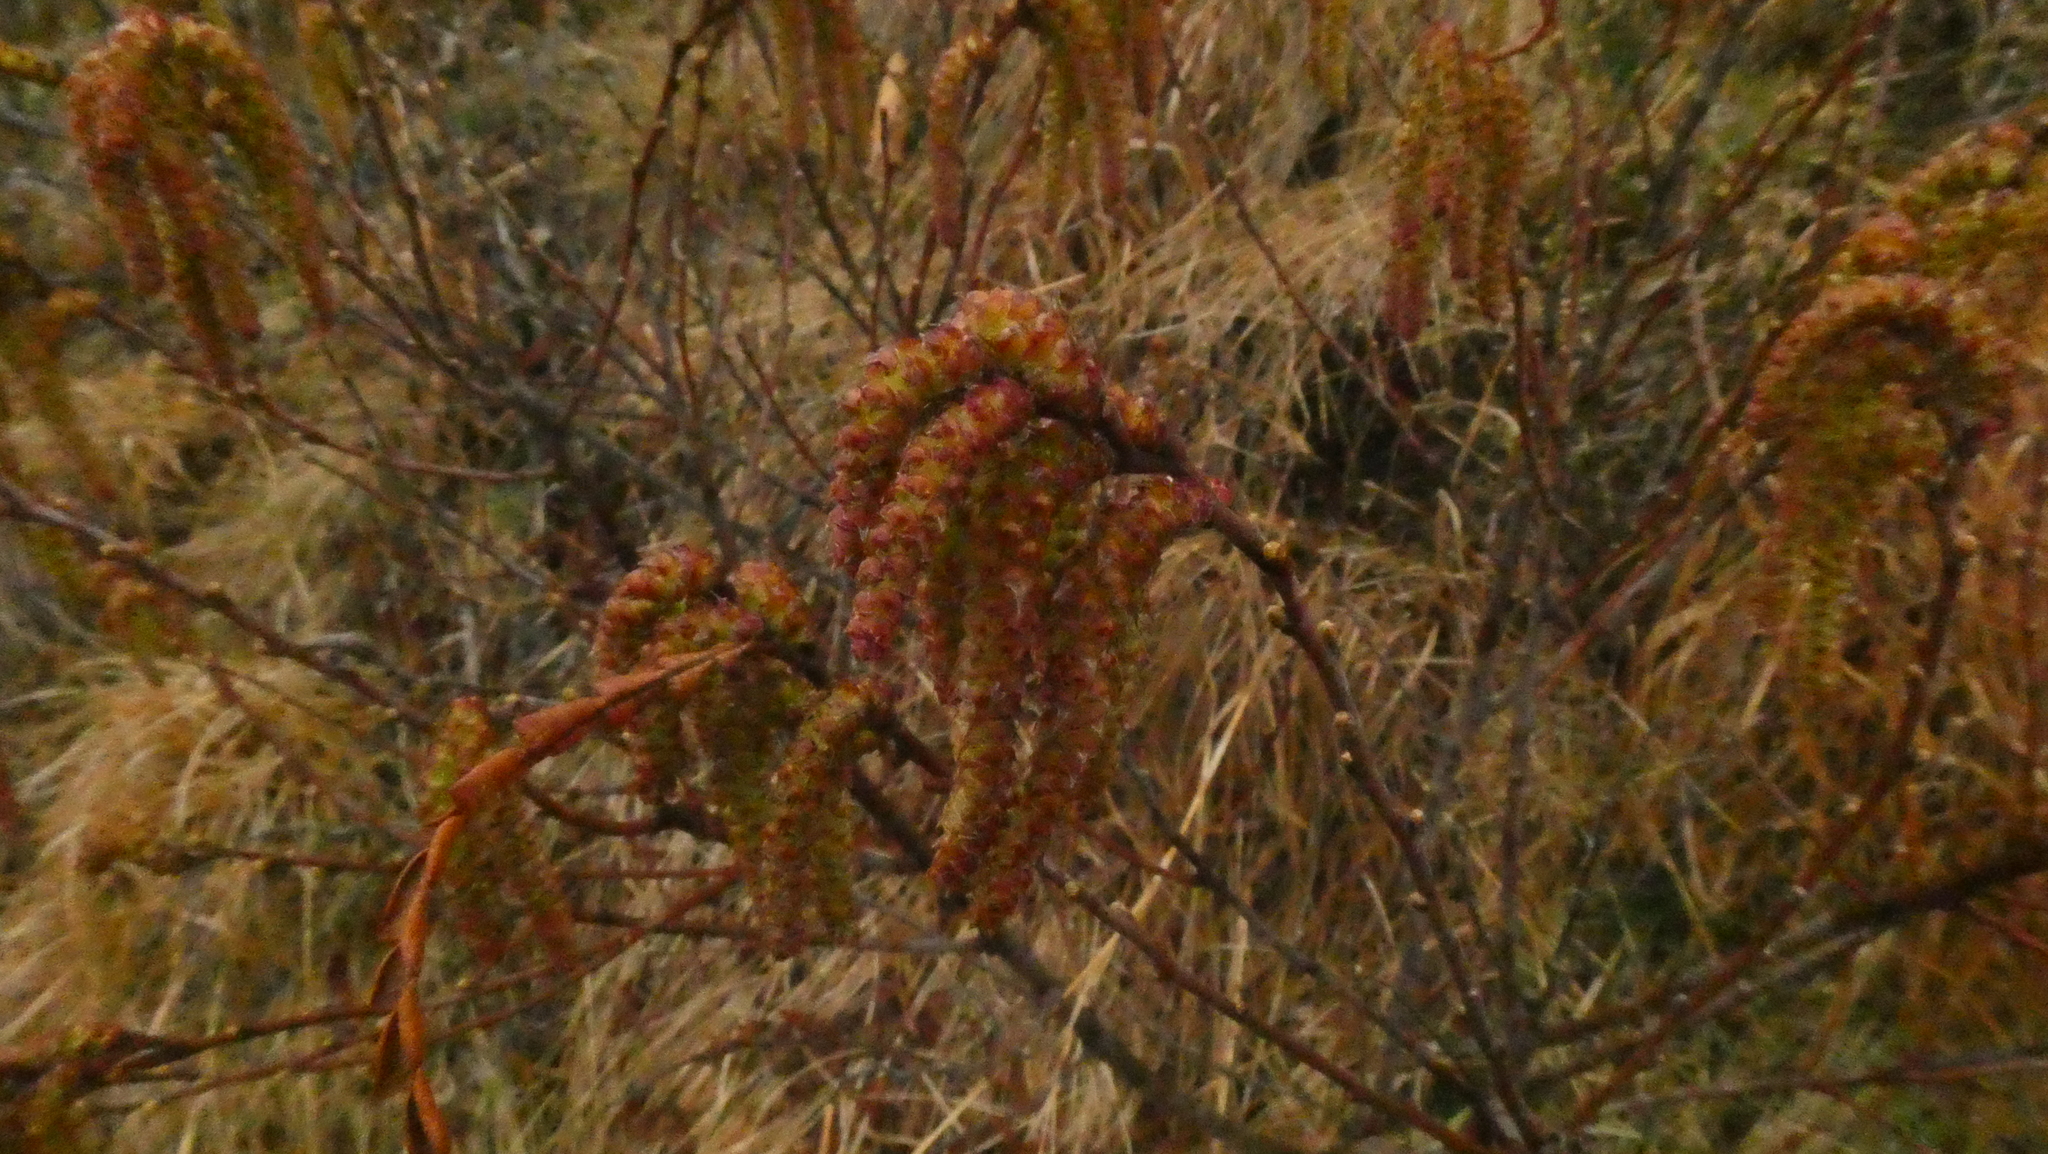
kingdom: Plantae
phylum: Tracheophyta
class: Magnoliopsida
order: Fagales
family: Myricaceae
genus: Comptonia
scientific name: Comptonia peregrina
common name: Sweet-fern
